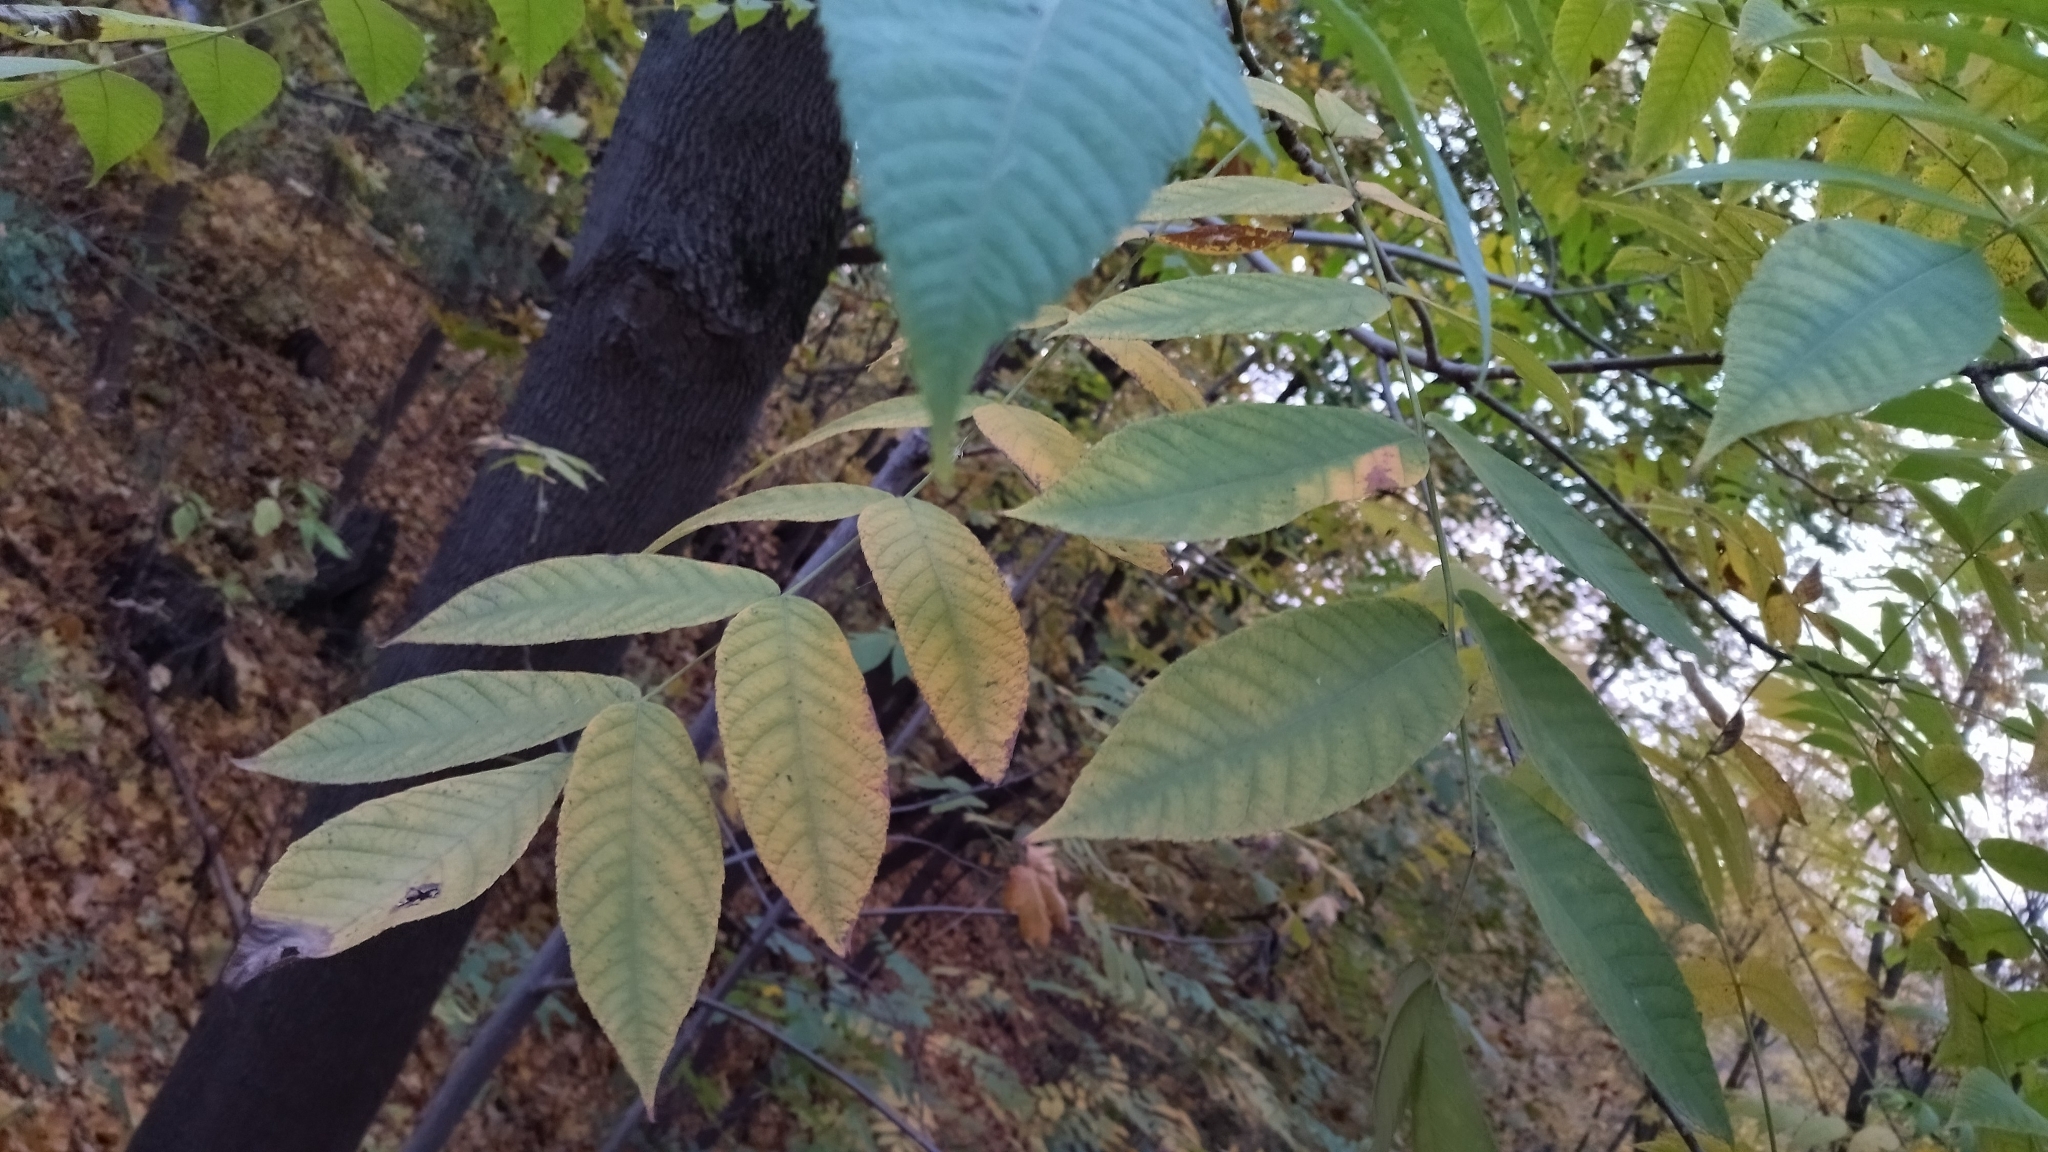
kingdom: Plantae
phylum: Tracheophyta
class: Magnoliopsida
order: Fagales
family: Juglandaceae
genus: Juglans
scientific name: Juglans mandshurica
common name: Manchurian walnut
